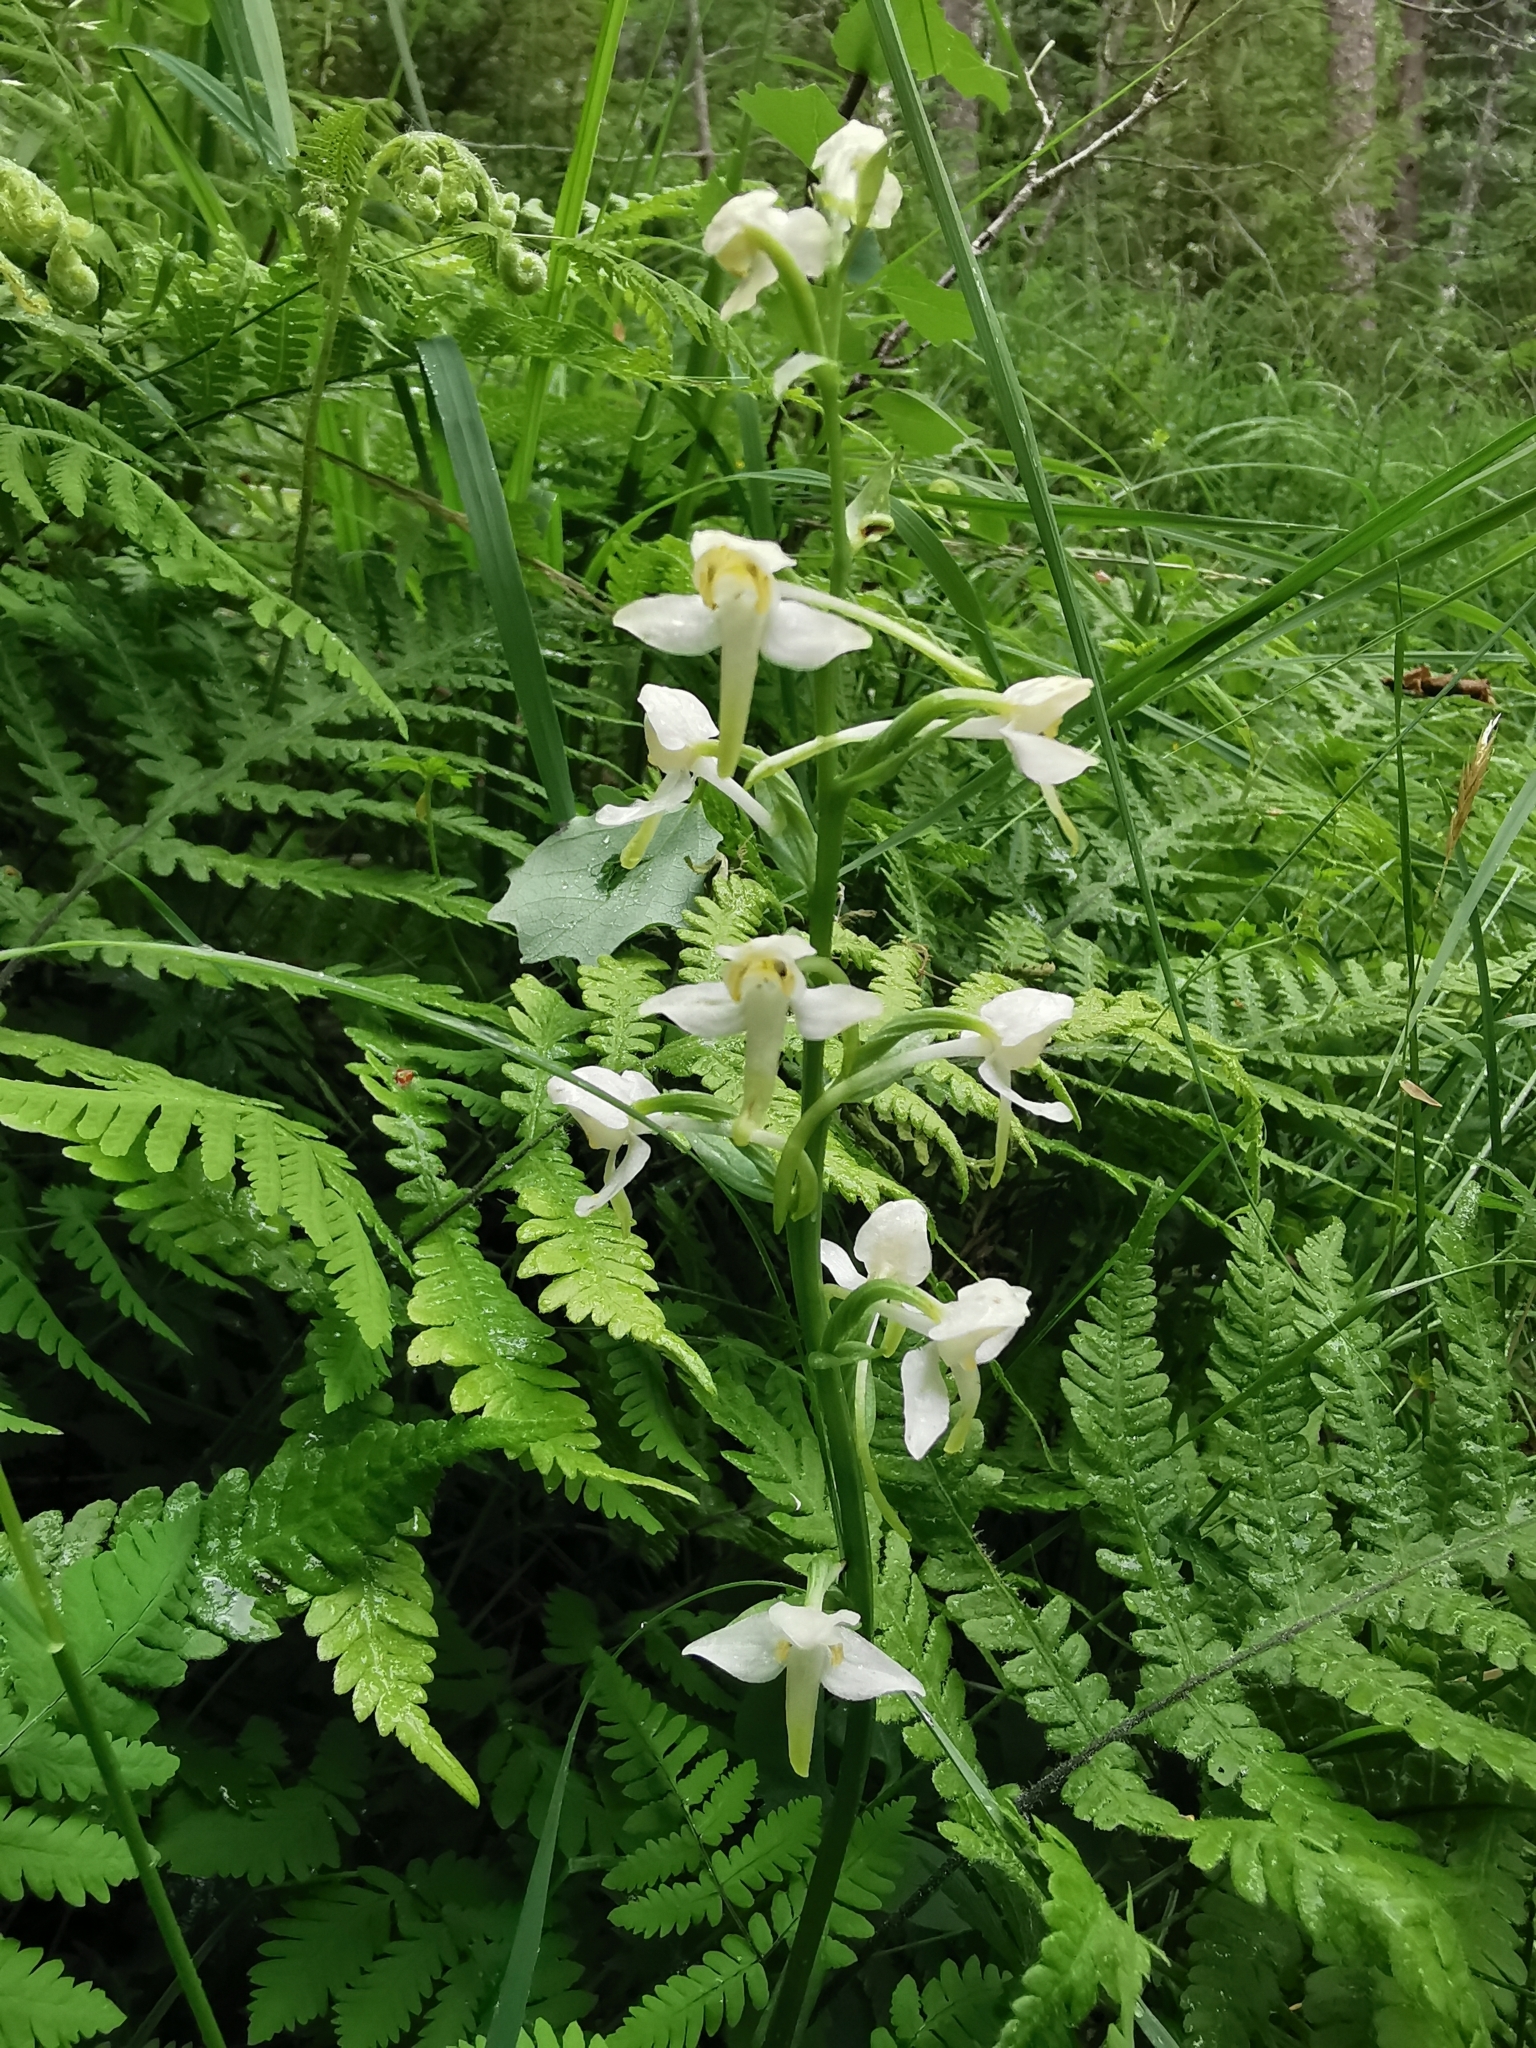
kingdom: Plantae
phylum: Tracheophyta
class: Liliopsida
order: Asparagales
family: Orchidaceae
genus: Platanthera
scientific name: Platanthera chlorantha
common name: Greater butterfly-orchid
